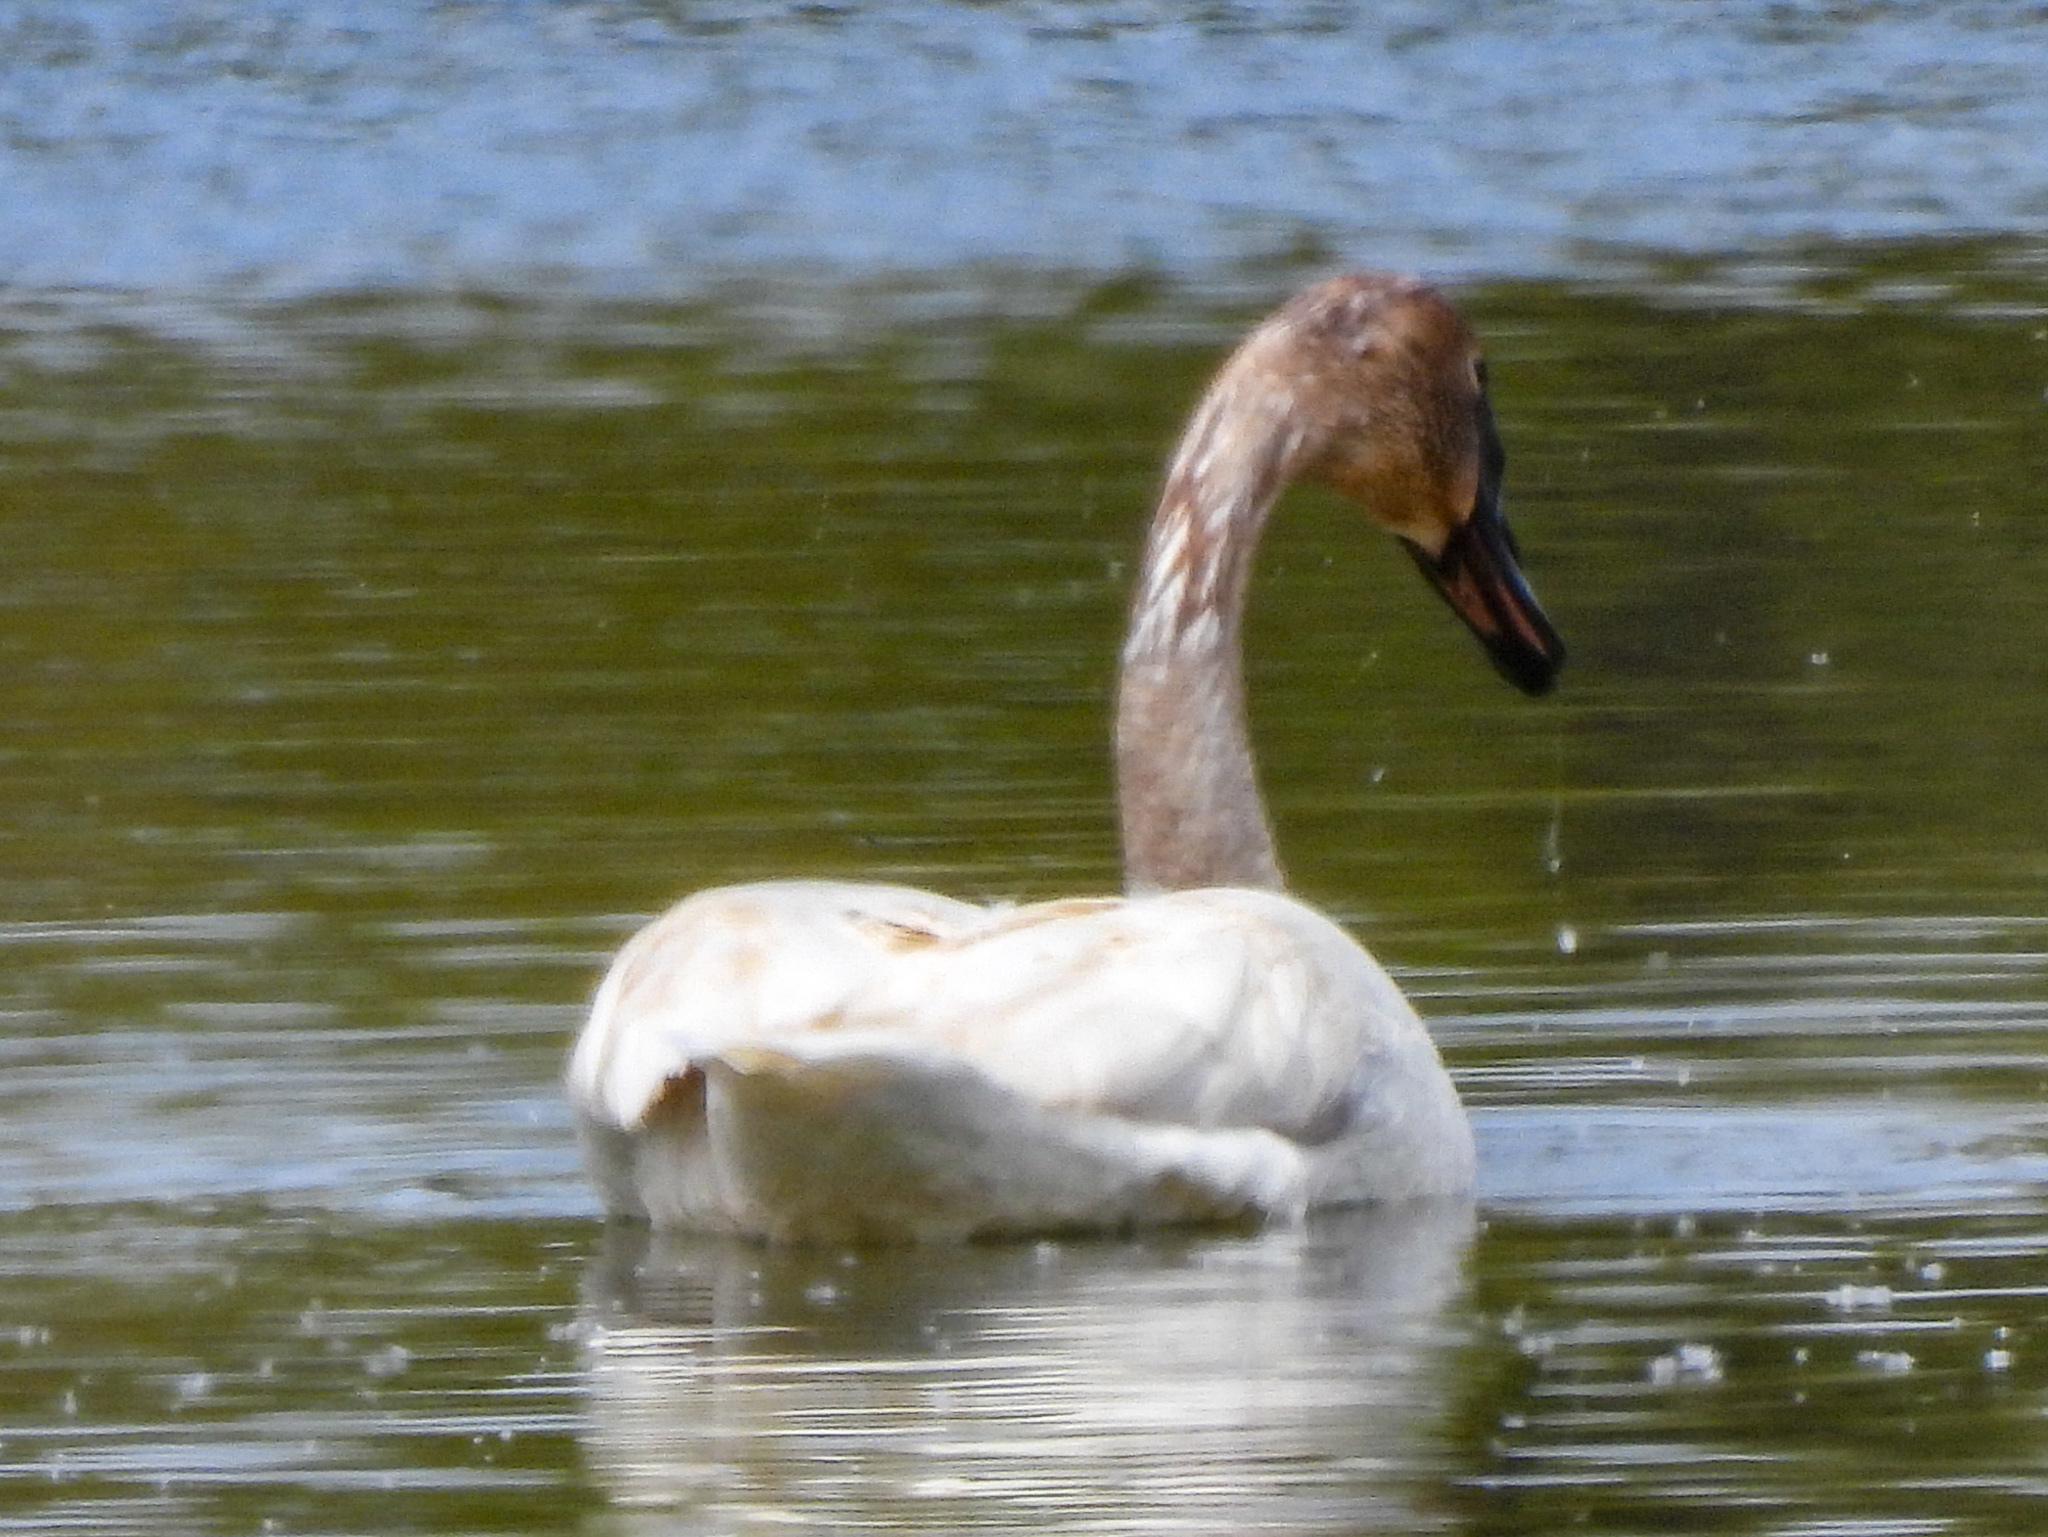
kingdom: Animalia
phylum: Chordata
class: Aves
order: Anseriformes
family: Anatidae
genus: Cygnus
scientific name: Cygnus buccinator
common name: Trumpeter swan
